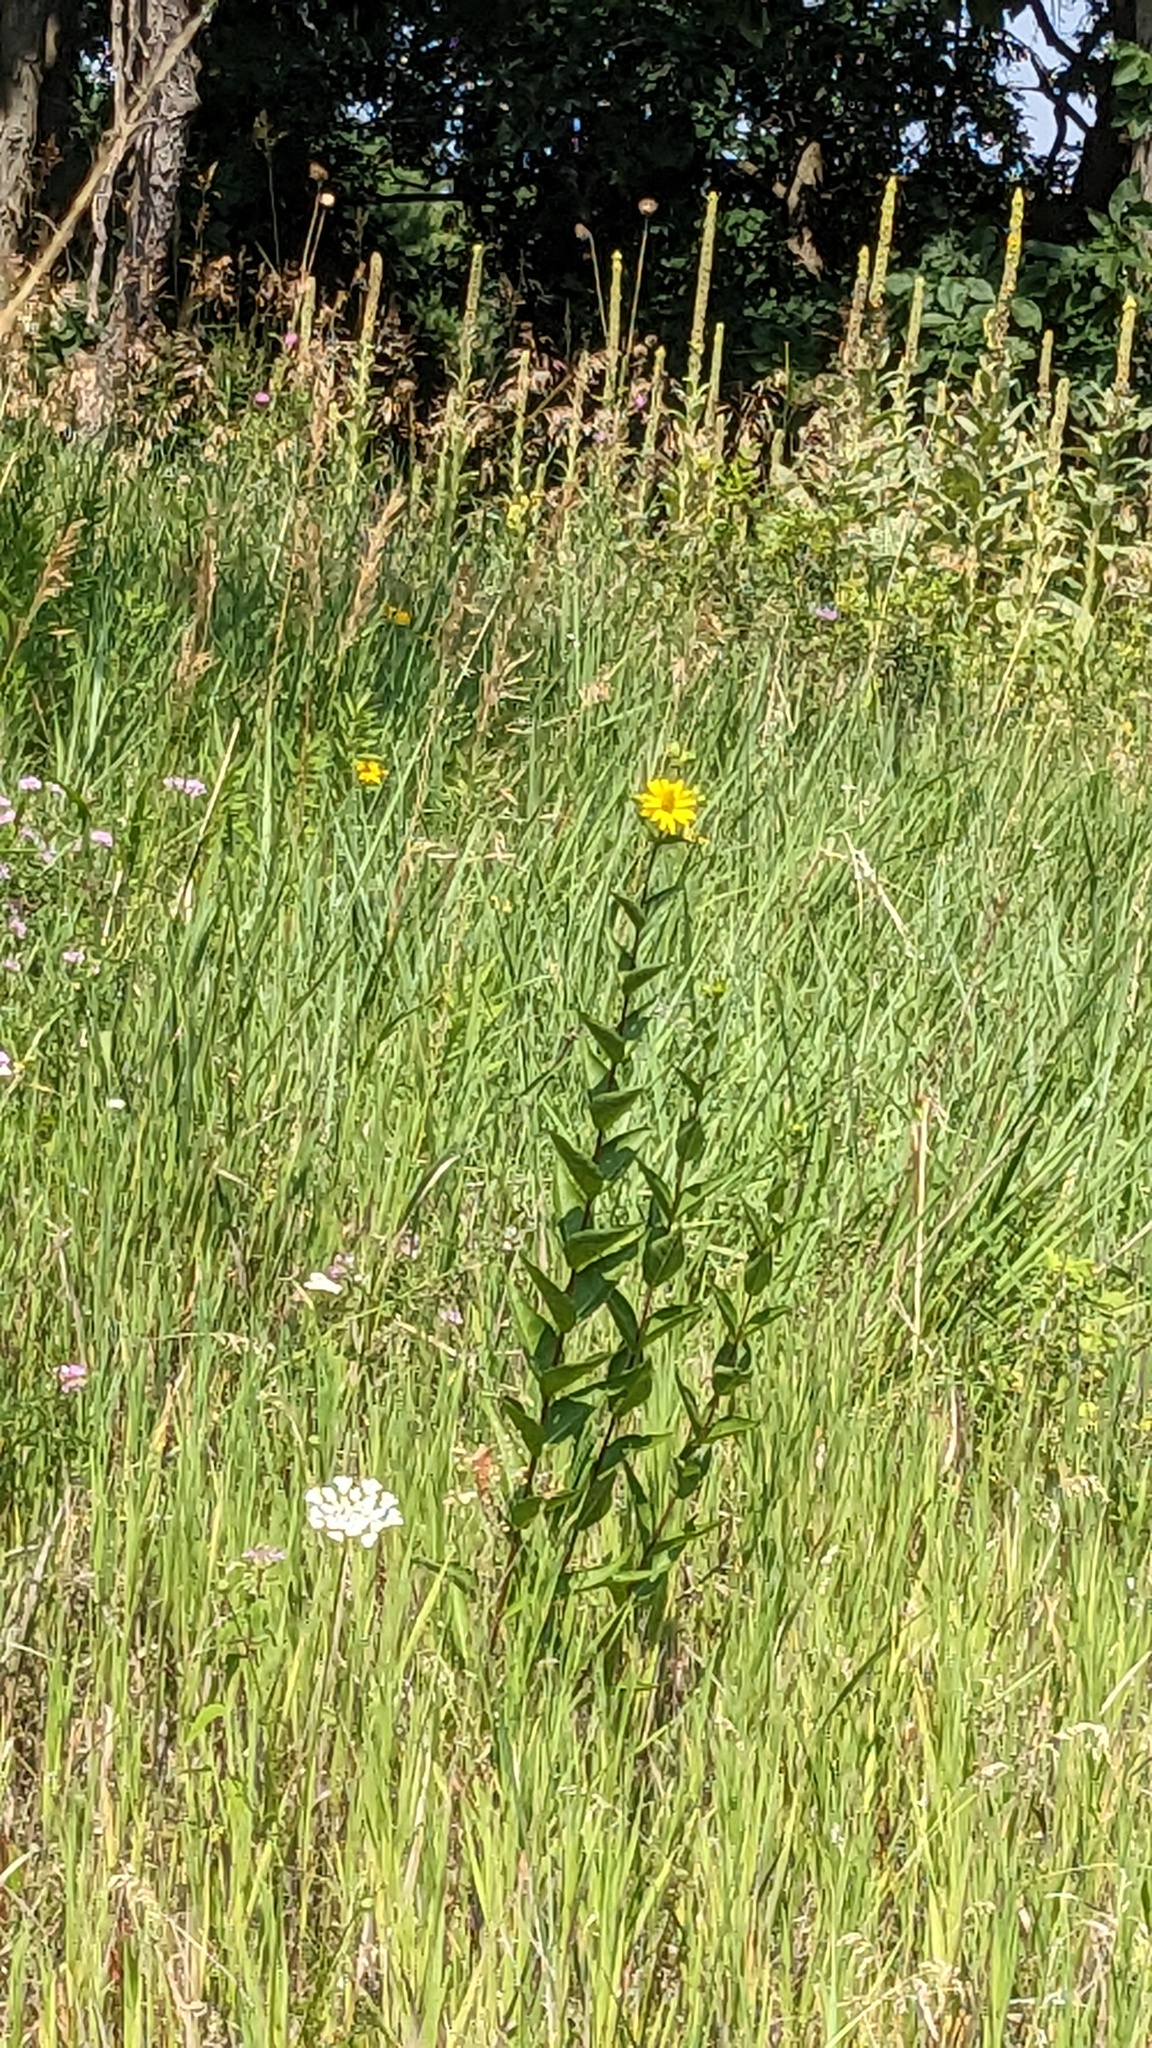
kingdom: Plantae
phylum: Tracheophyta
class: Magnoliopsida
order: Asterales
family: Asteraceae
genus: Silphium
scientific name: Silphium integrifolium
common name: Whole-leaf rosinweed
